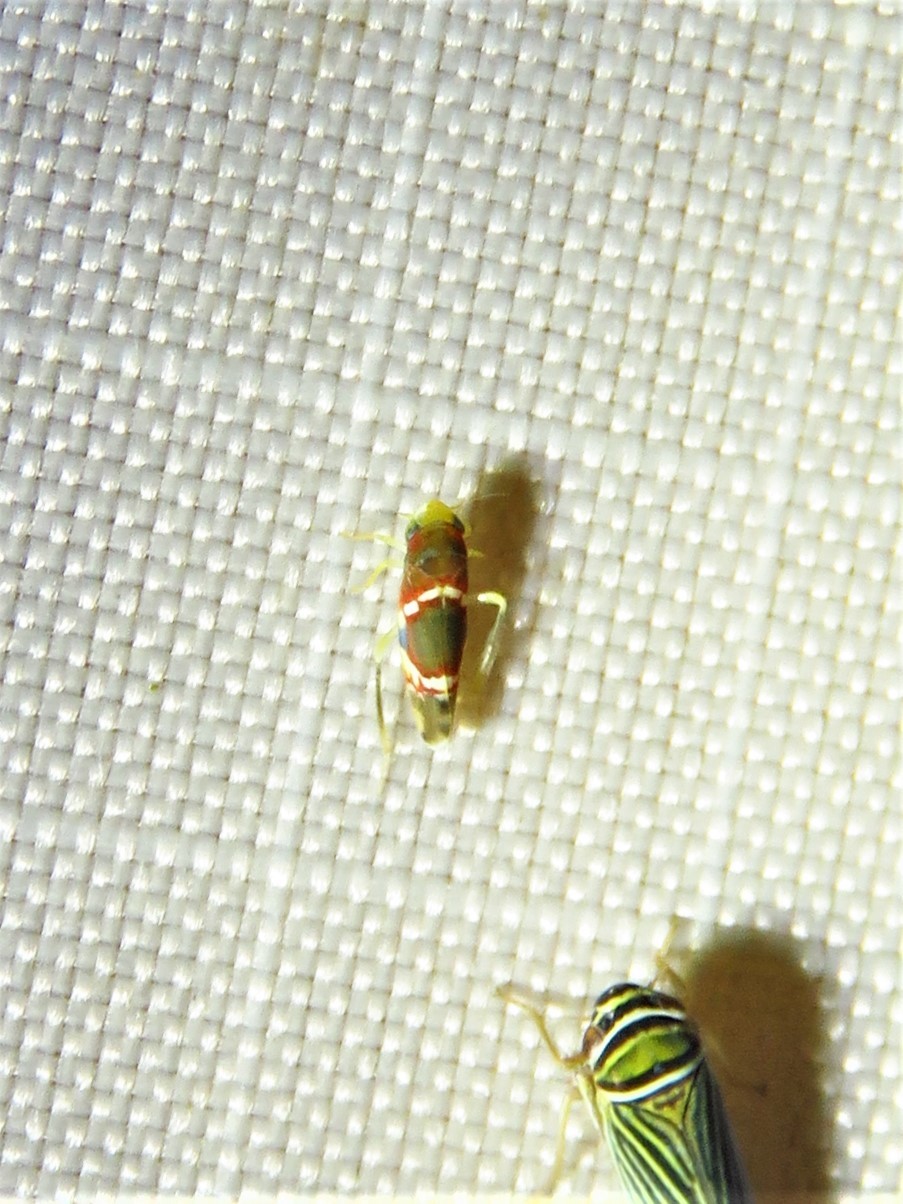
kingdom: Animalia
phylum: Arthropoda
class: Insecta
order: Hemiptera
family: Cicadellidae
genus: Erythroneura
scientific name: Erythroneura vitis
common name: Grapevine leafhopper
